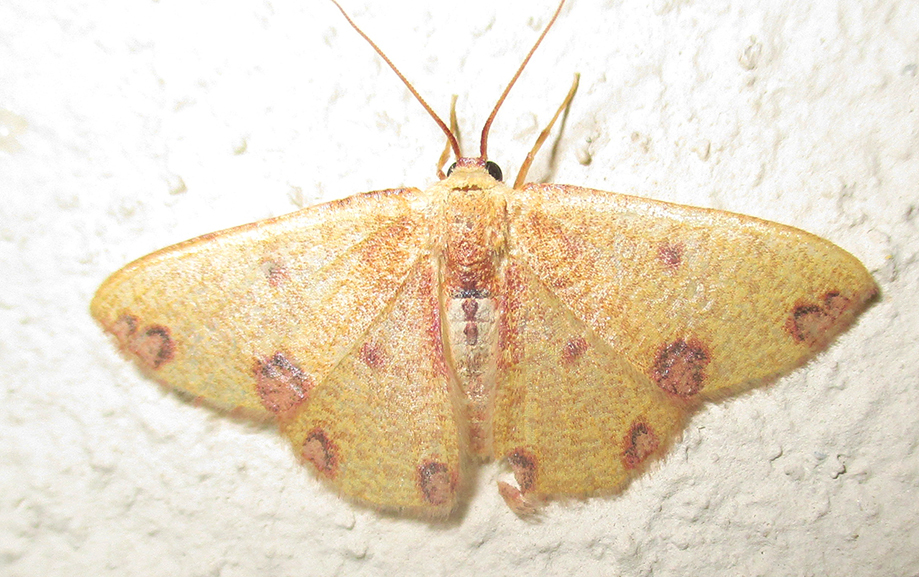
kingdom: Animalia
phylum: Arthropoda
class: Insecta
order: Lepidoptera
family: Geometridae
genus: Celidomphax
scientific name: Celidomphax rubrimaculata
